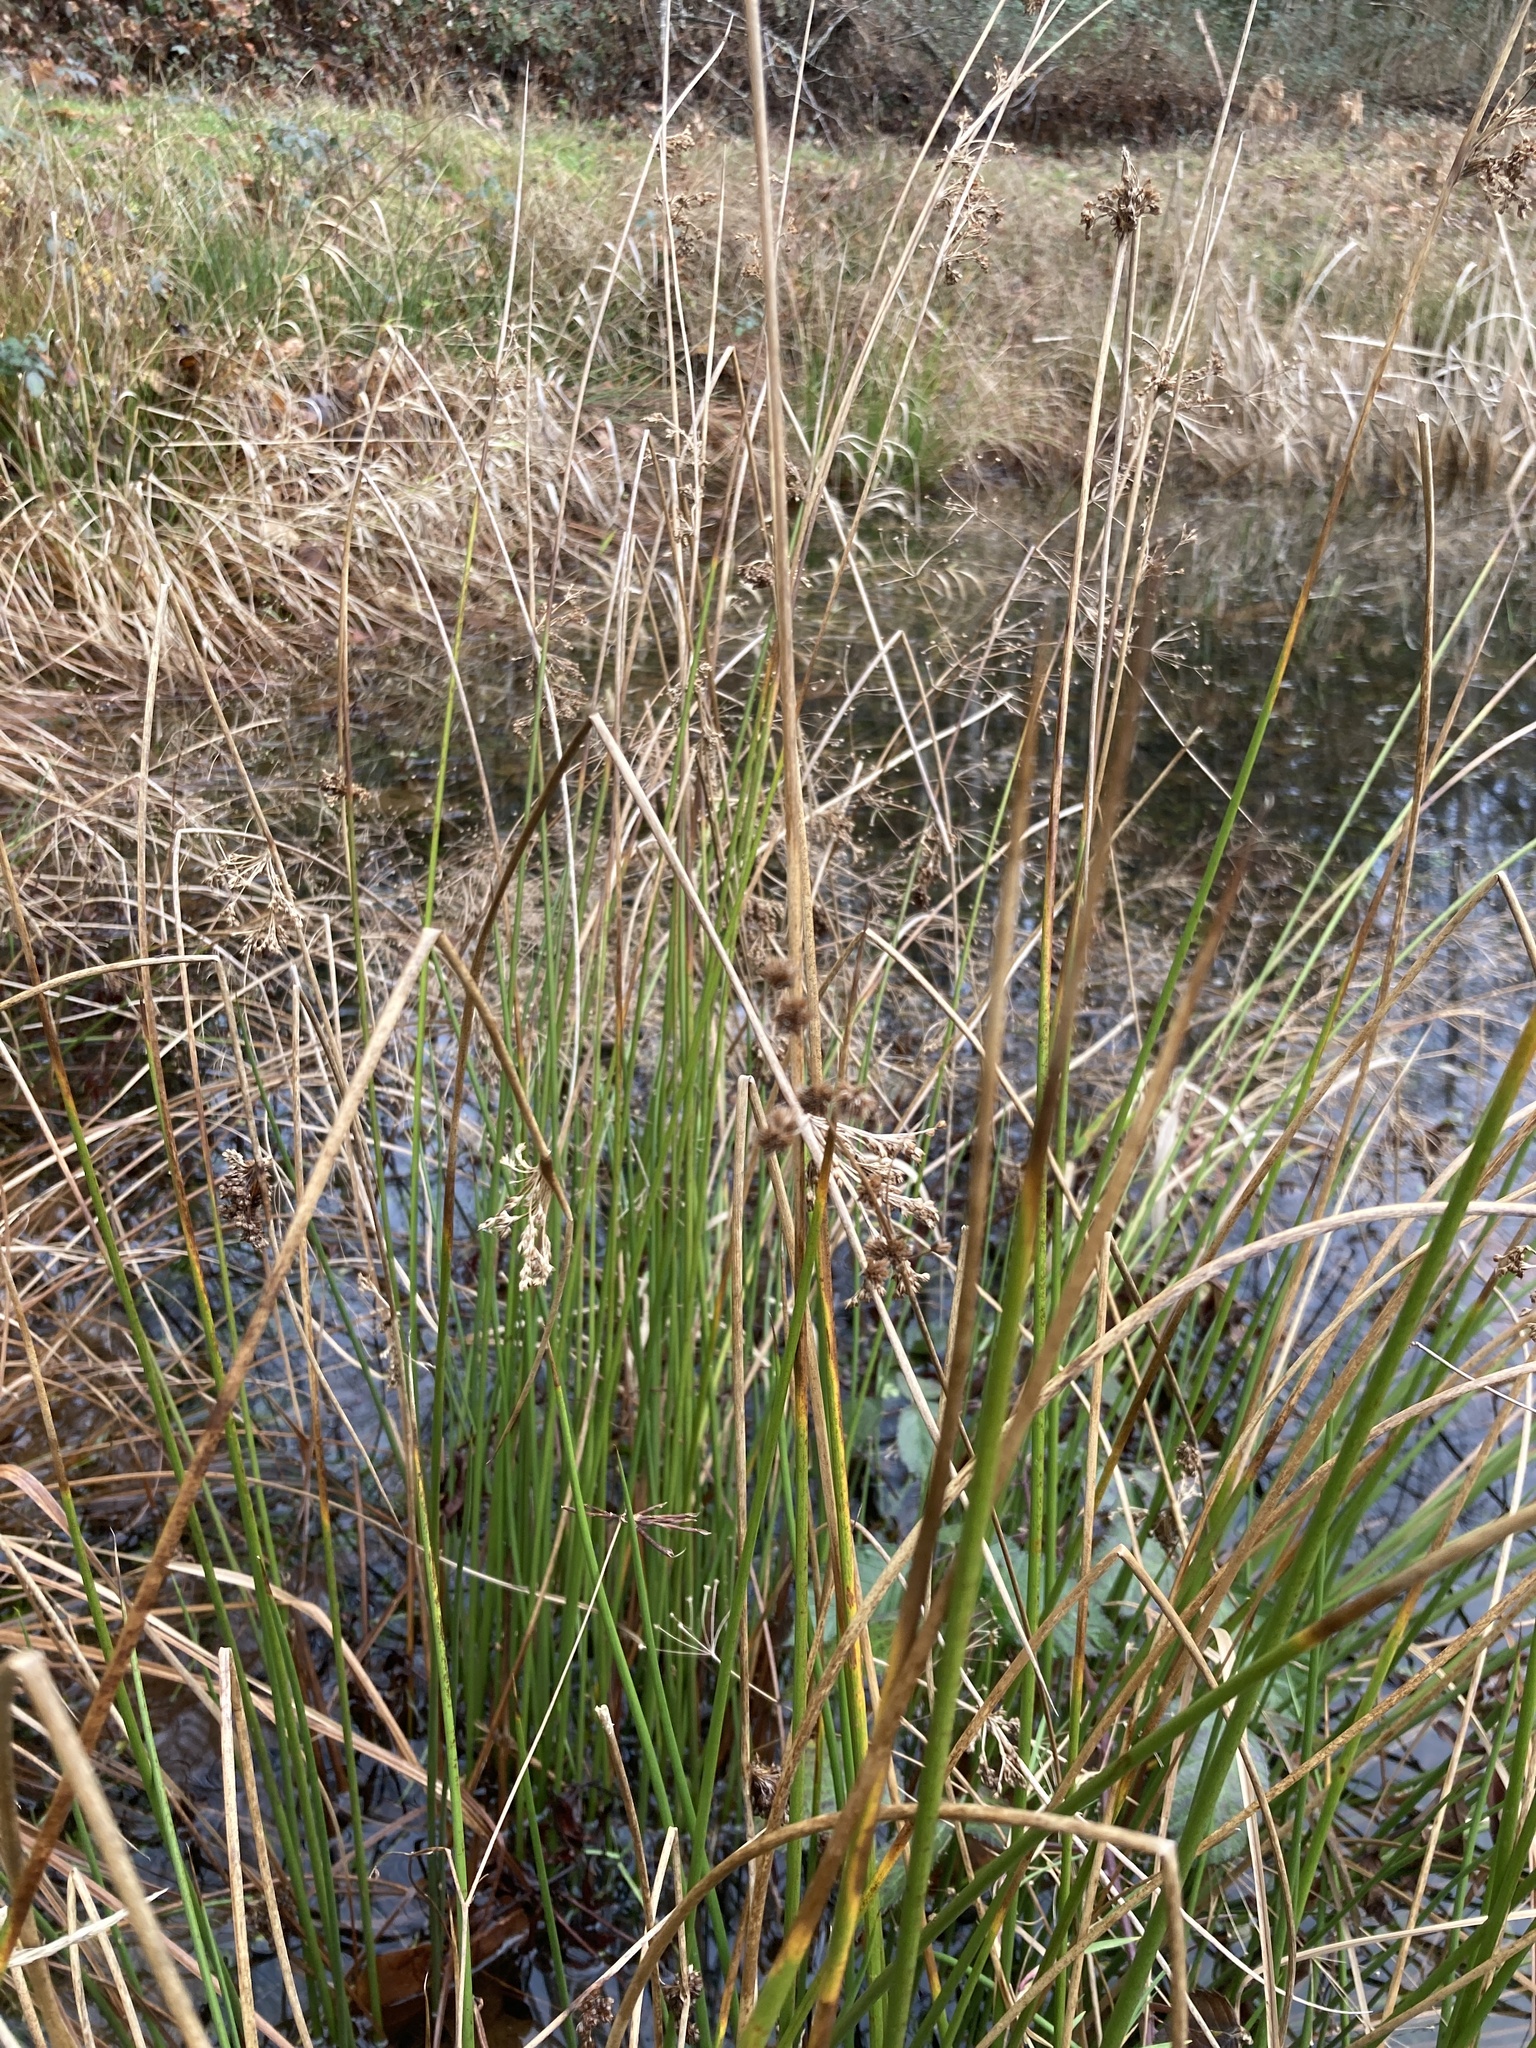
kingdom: Plantae
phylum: Tracheophyta
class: Liliopsida
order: Poales
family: Juncaceae
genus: Juncus
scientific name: Juncus effusus
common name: Soft rush
